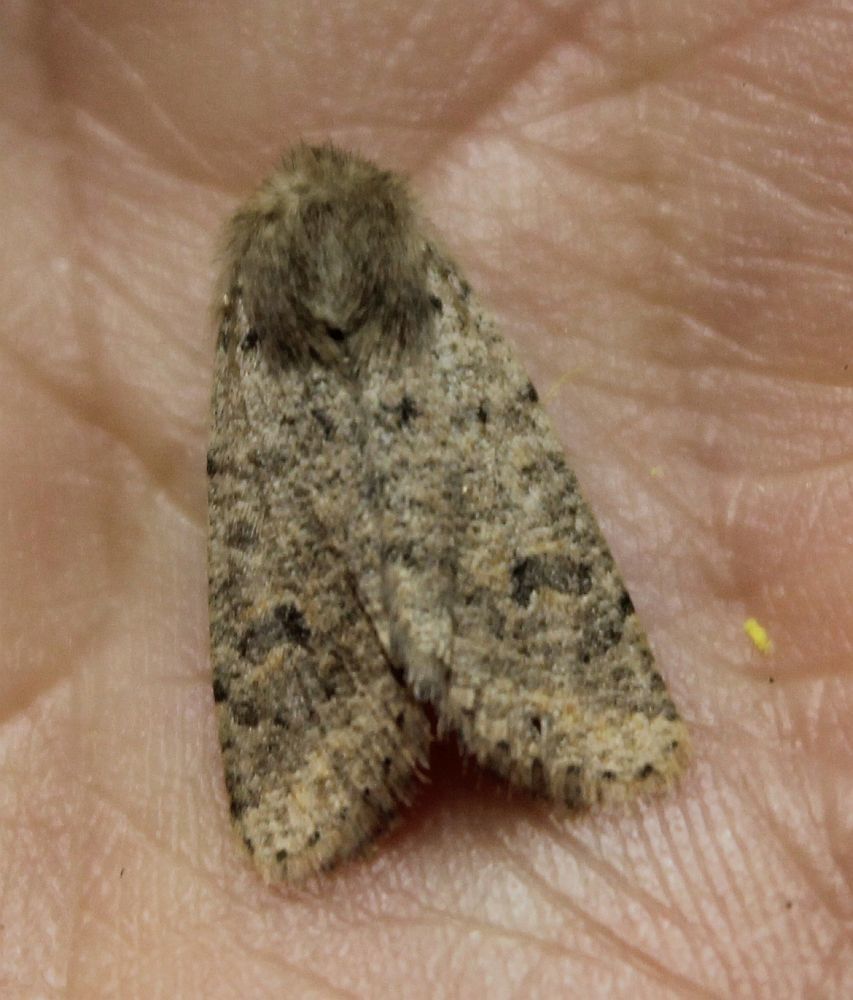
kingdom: Animalia
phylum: Arthropoda
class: Insecta
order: Lepidoptera
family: Noctuidae
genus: Orthosia
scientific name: Orthosia cruda
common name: Small quaker
